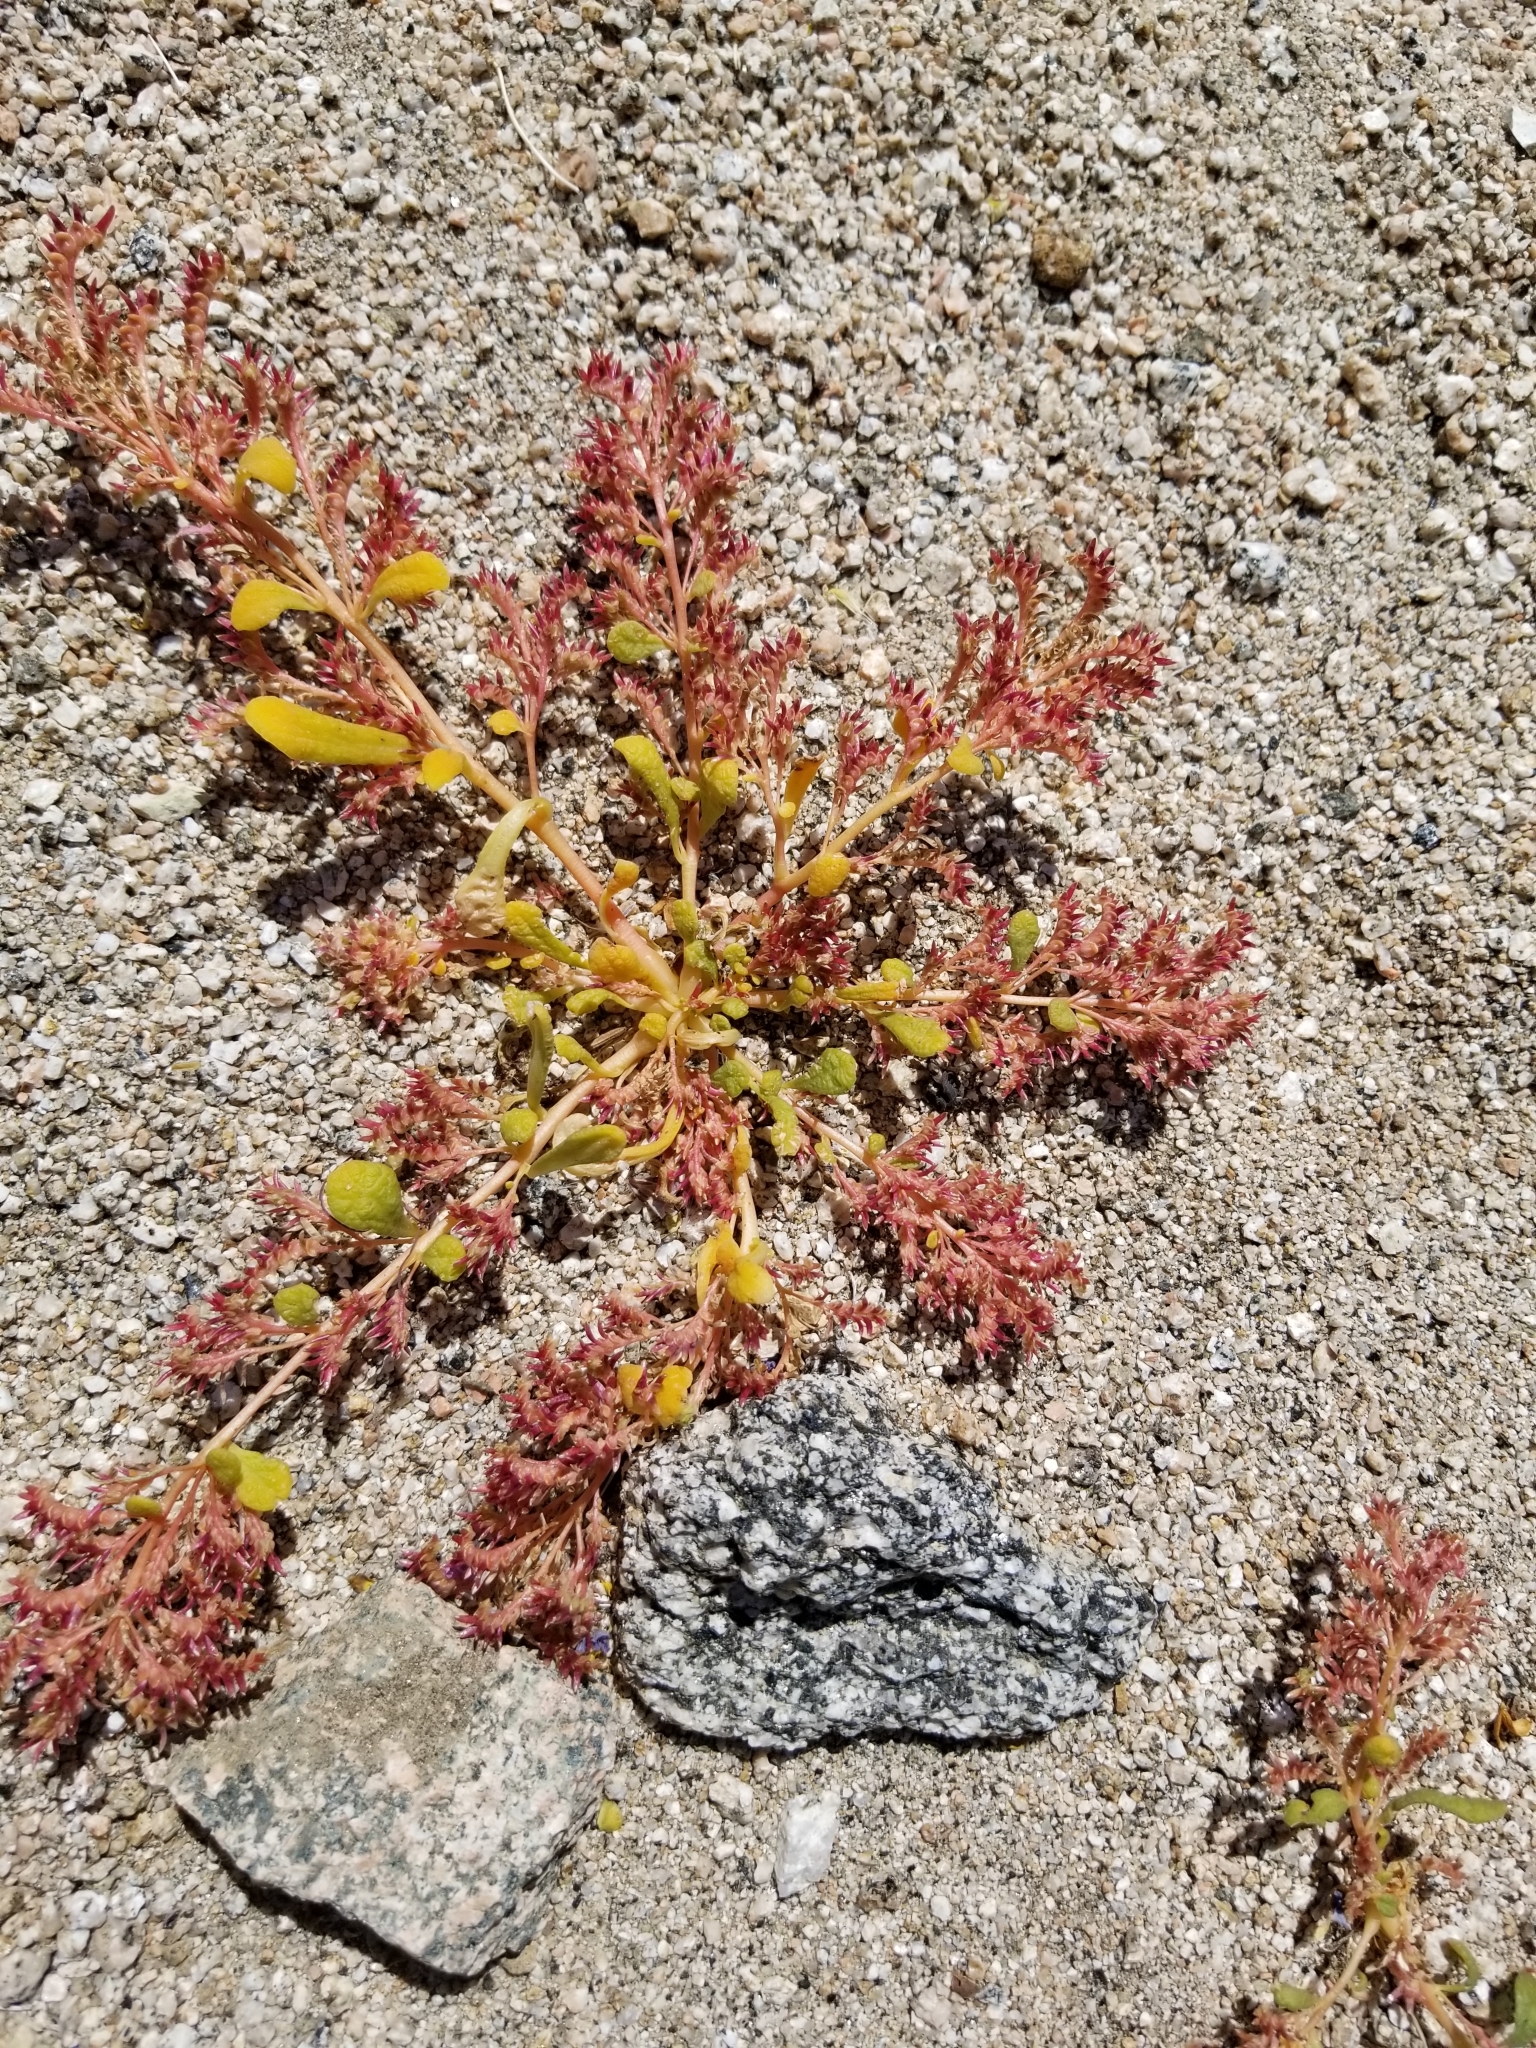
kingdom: Plantae
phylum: Tracheophyta
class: Magnoliopsida
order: Caryophyllales
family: Montiaceae
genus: Calyptridium
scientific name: Calyptridium monandrum
